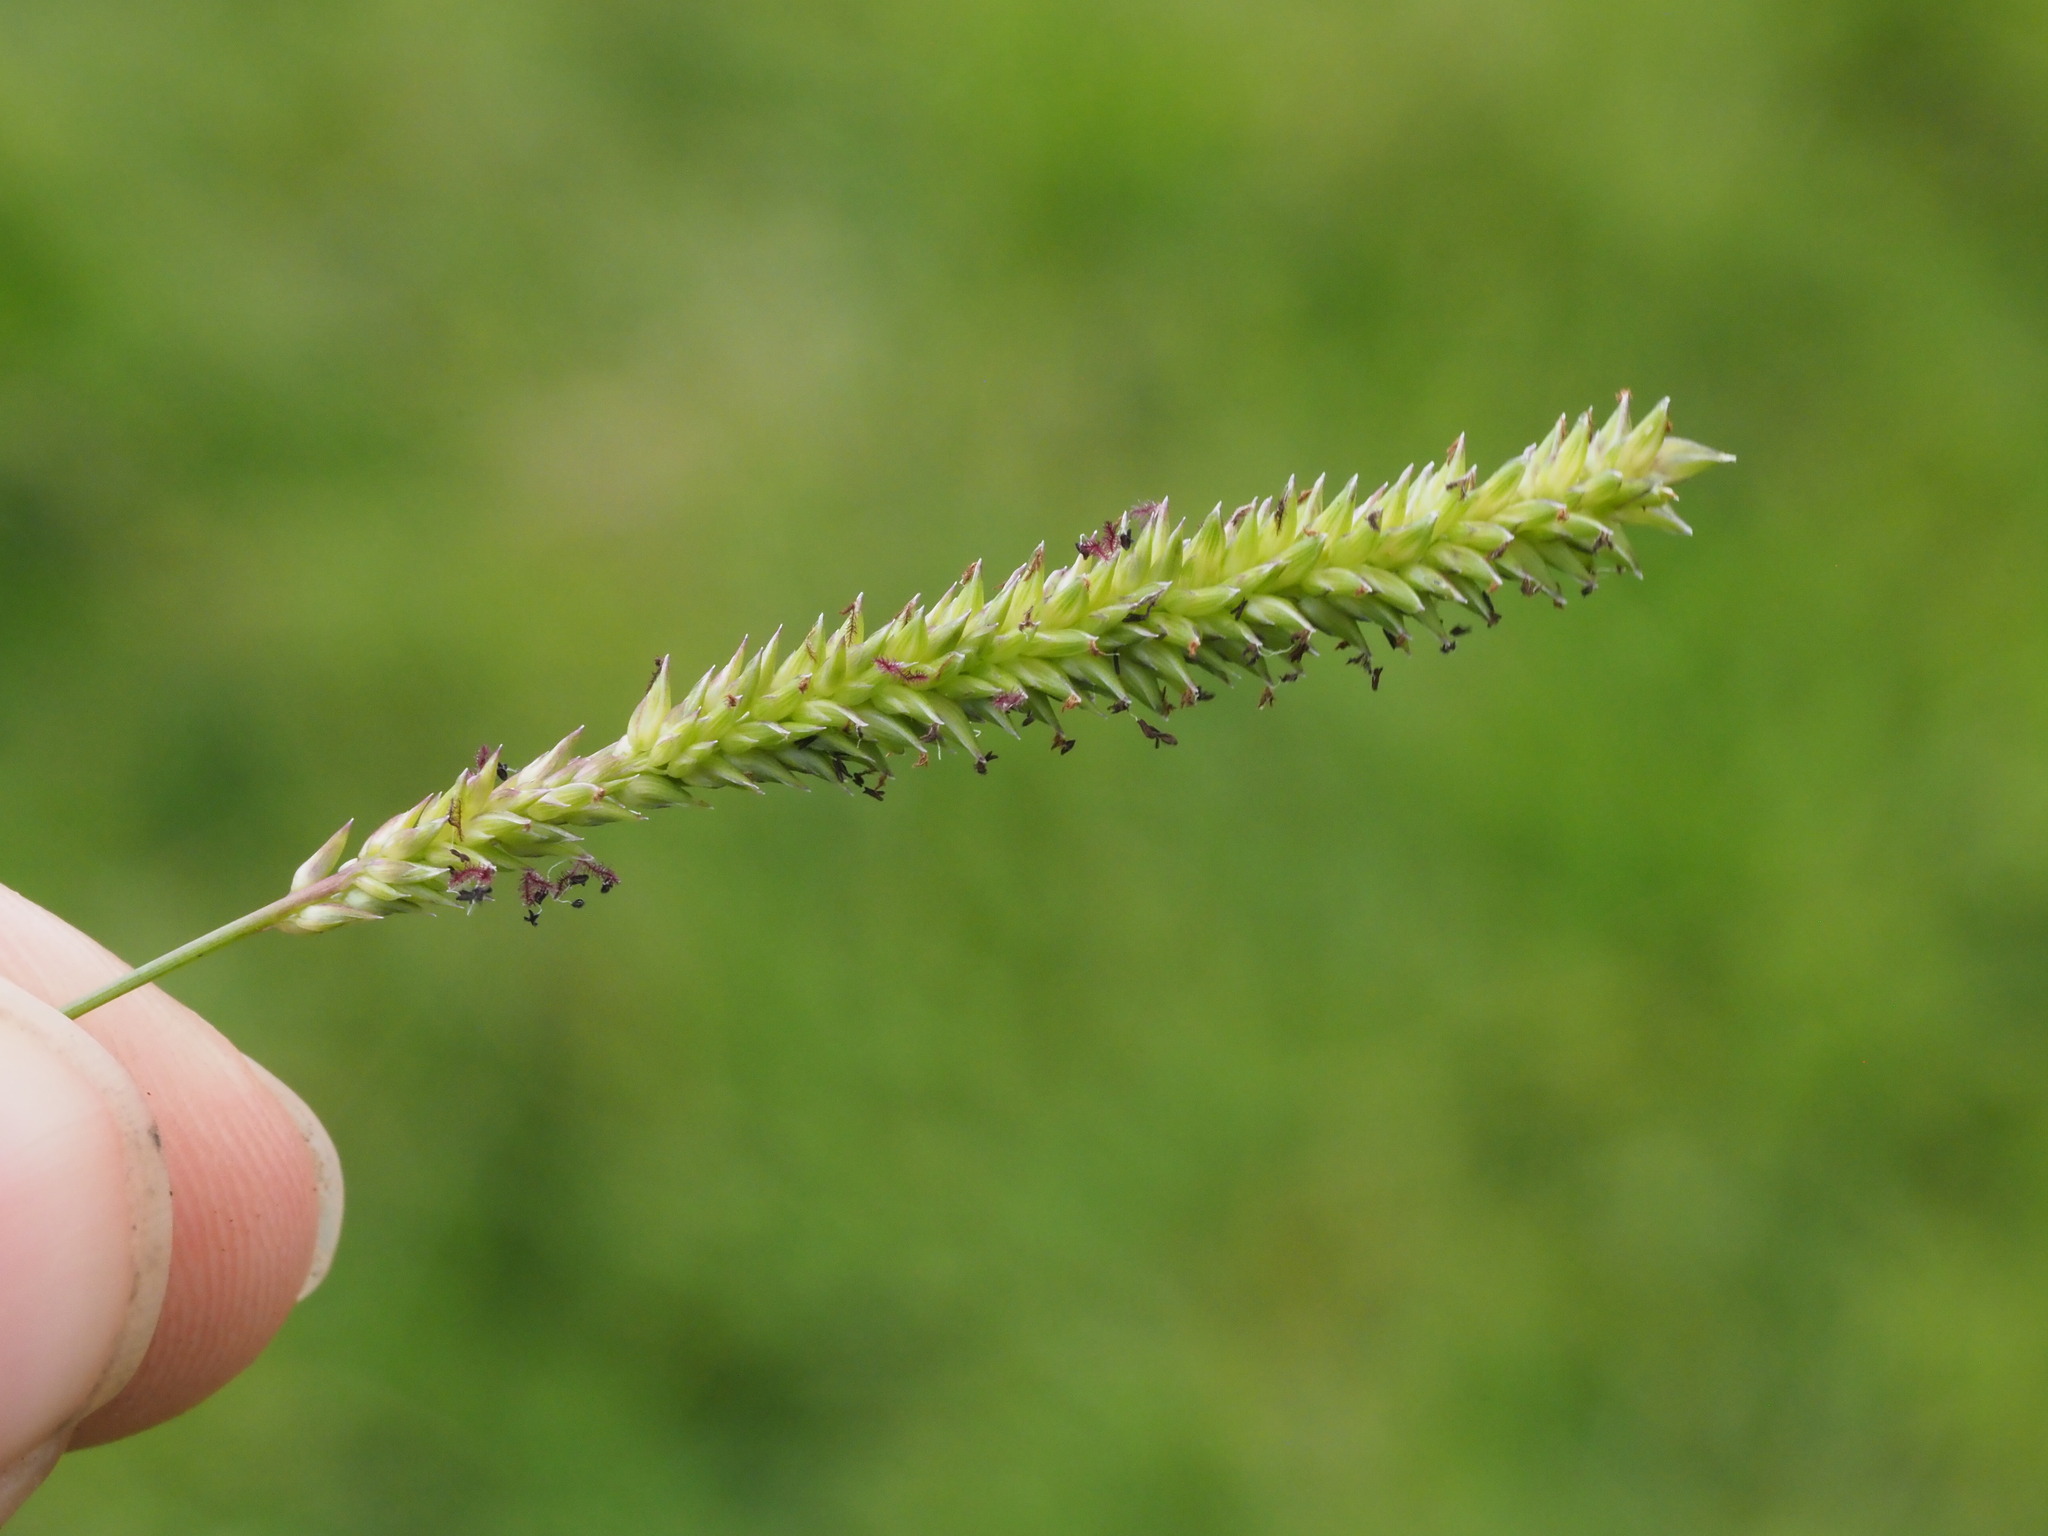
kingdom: Plantae
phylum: Tracheophyta
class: Liliopsida
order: Poales
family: Poaceae
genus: Sacciolepis
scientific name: Sacciolepis indica
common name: Glenwoodgrass
